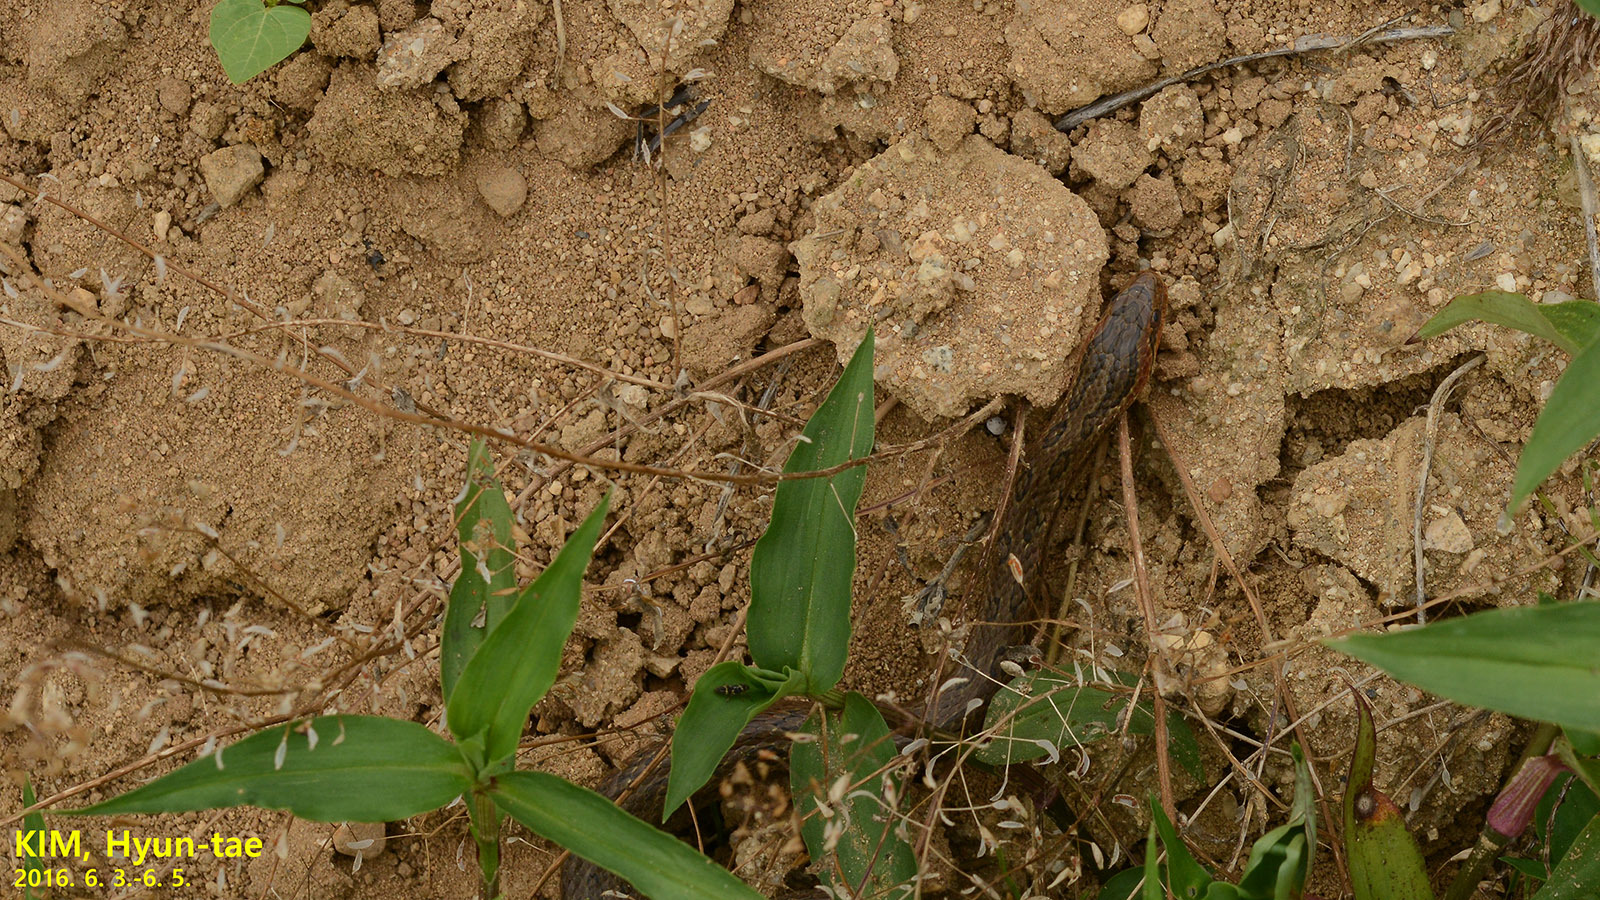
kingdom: Animalia
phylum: Chordata
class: Squamata
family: Colubridae
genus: Oocatochus
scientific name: Oocatochus rufodorsatus
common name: Frog-eating rat snake
